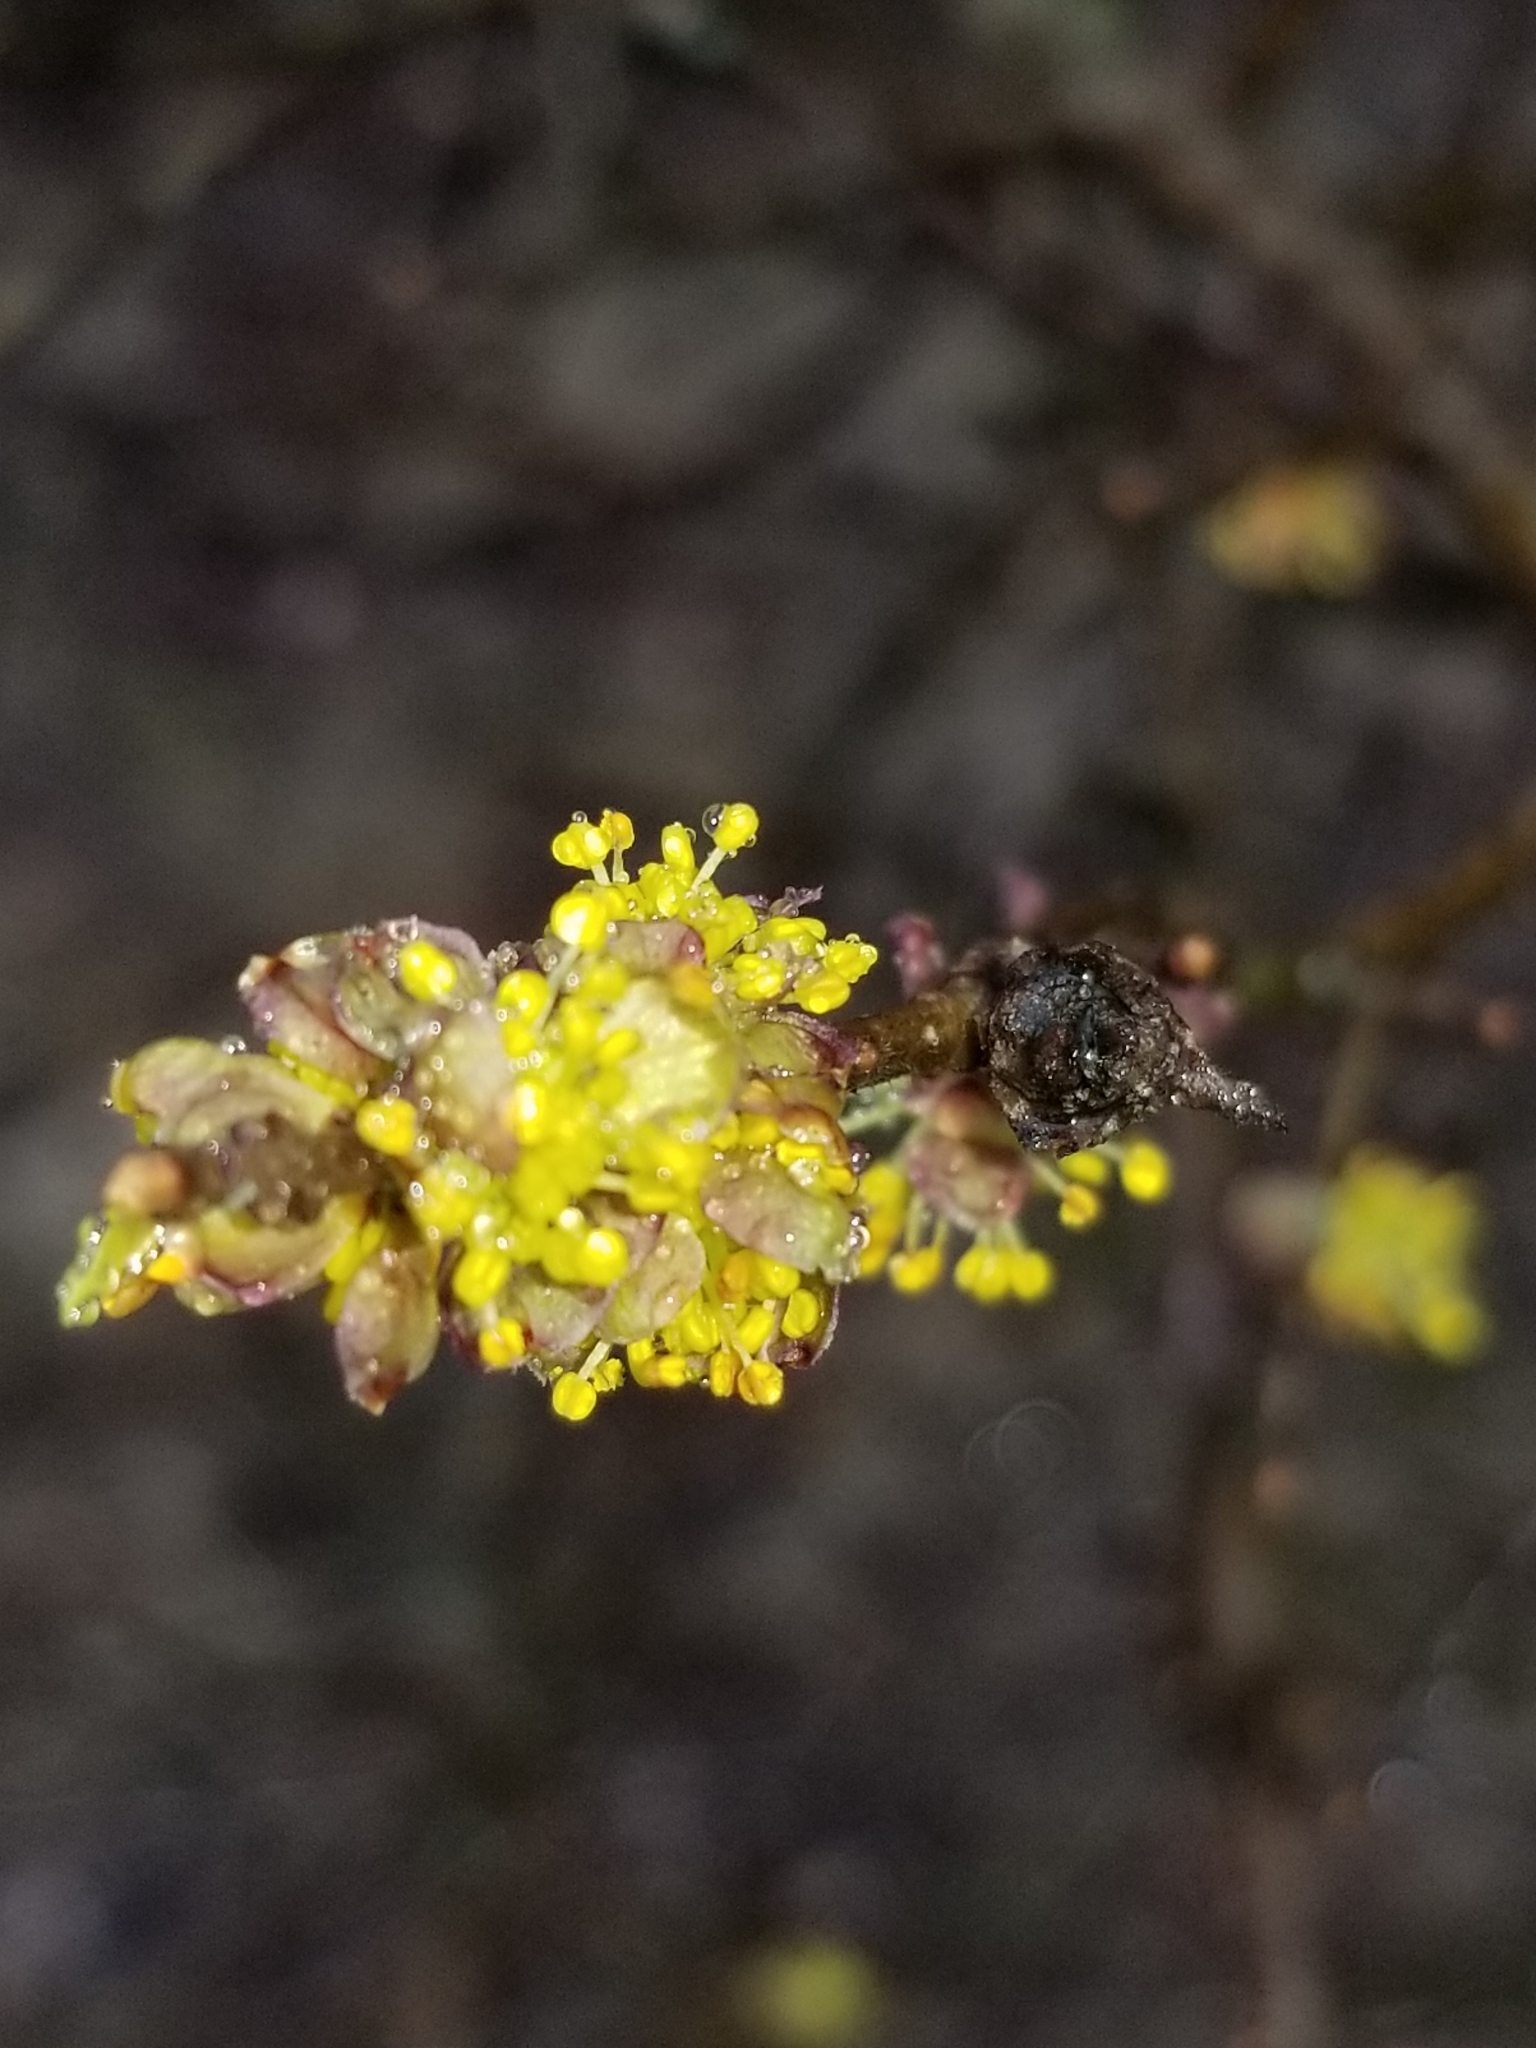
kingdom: Plantae
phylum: Tracheophyta
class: Magnoliopsida
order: Lamiales
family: Oleaceae
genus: Forestiera
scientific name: Forestiera pubescens
